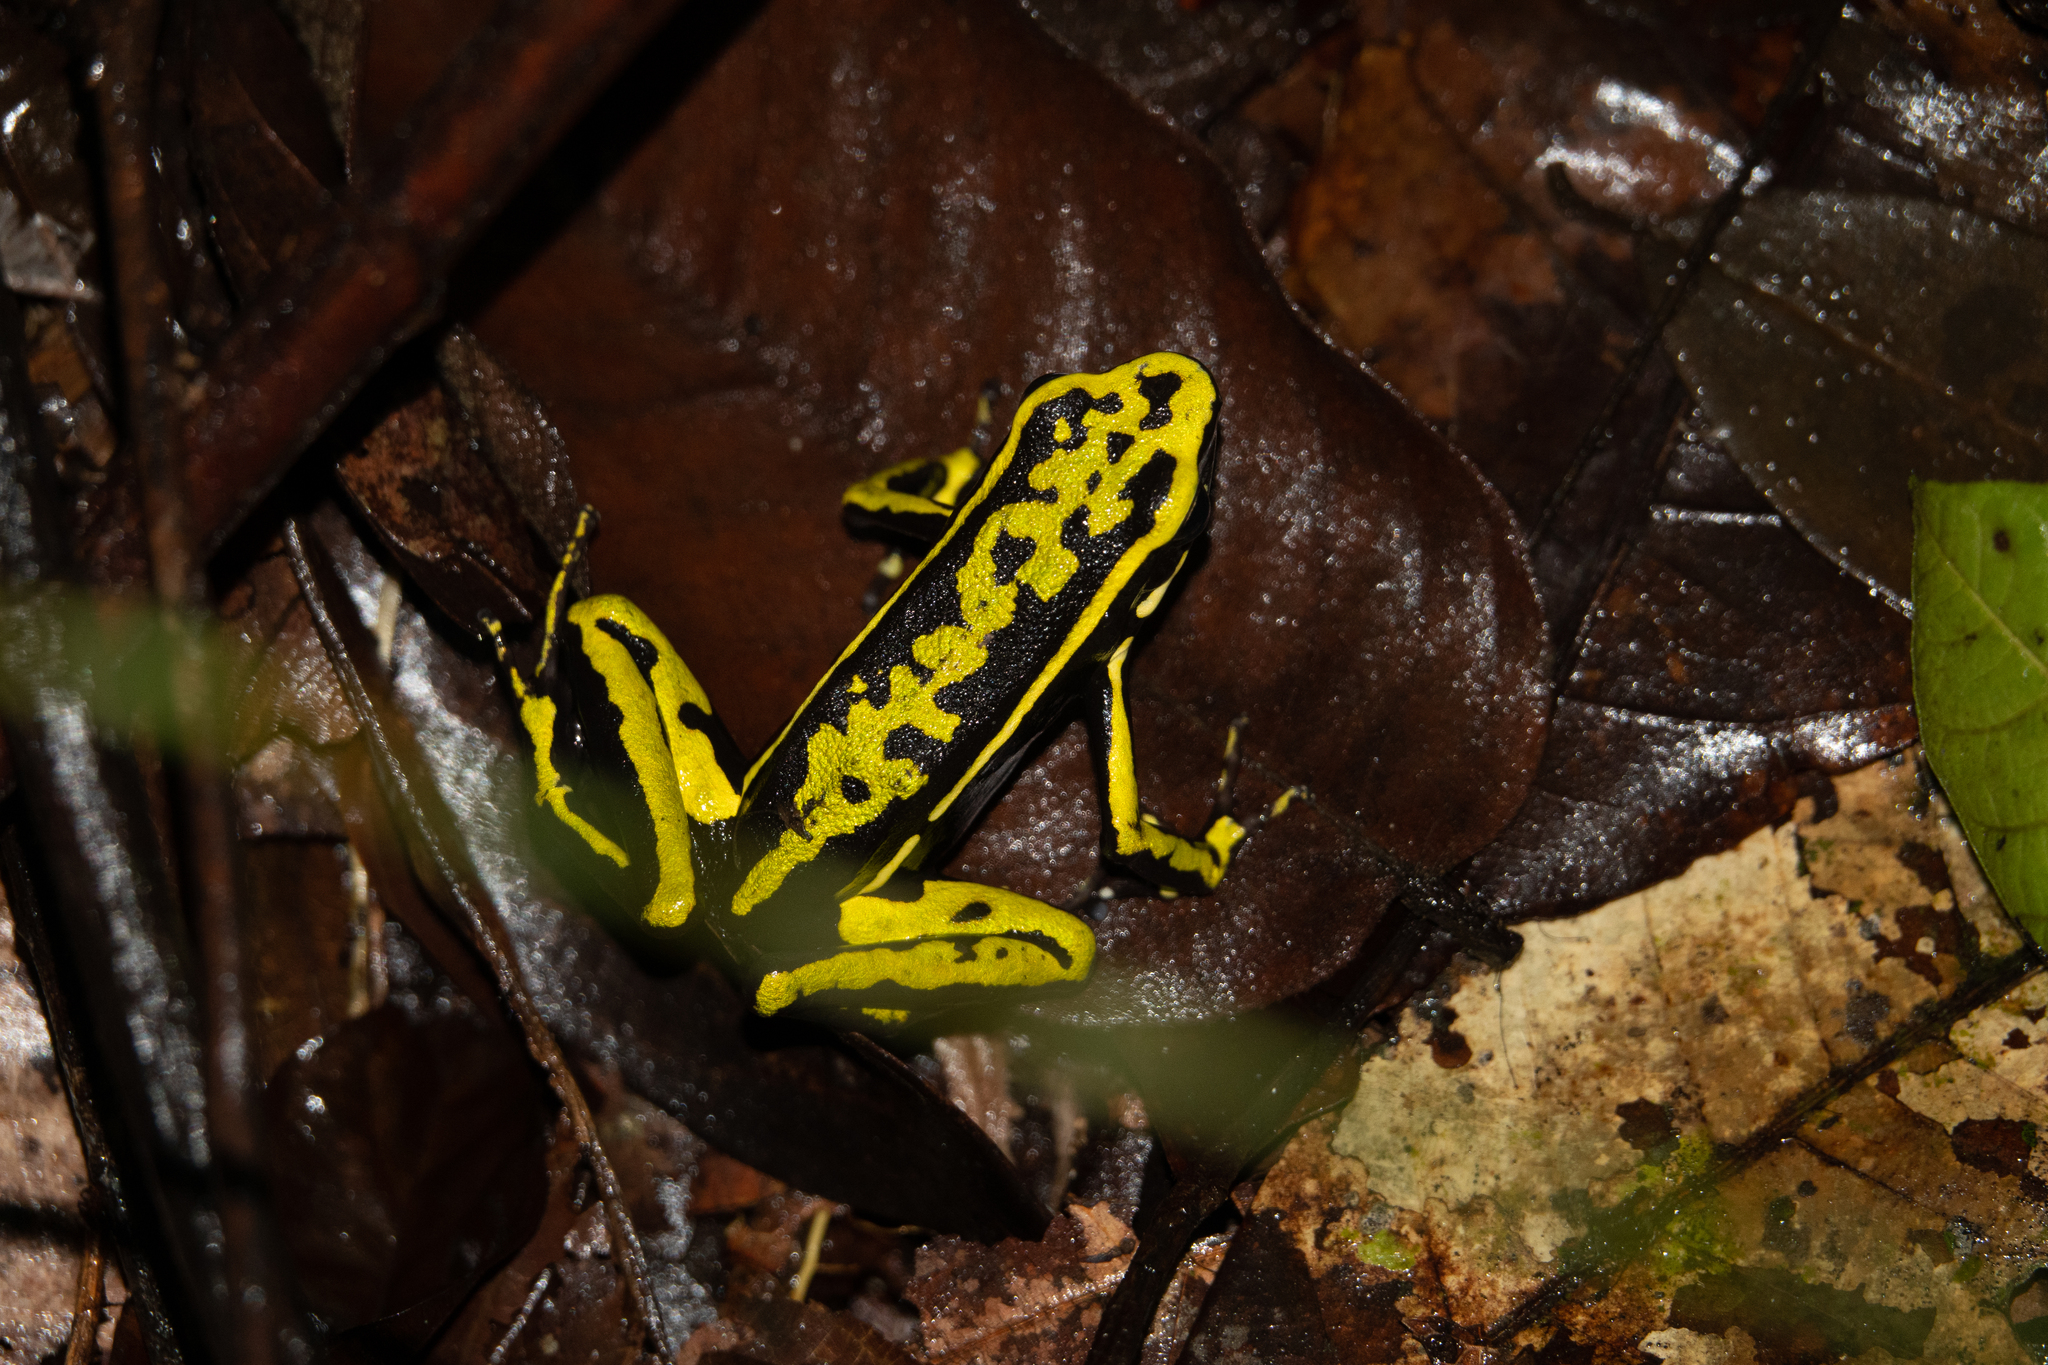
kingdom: Animalia
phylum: Chordata
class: Amphibia
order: Anura
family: Dendrobatidae
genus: Ameerega
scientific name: Ameerega trivittata
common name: Three-striped arrow-poison frog
